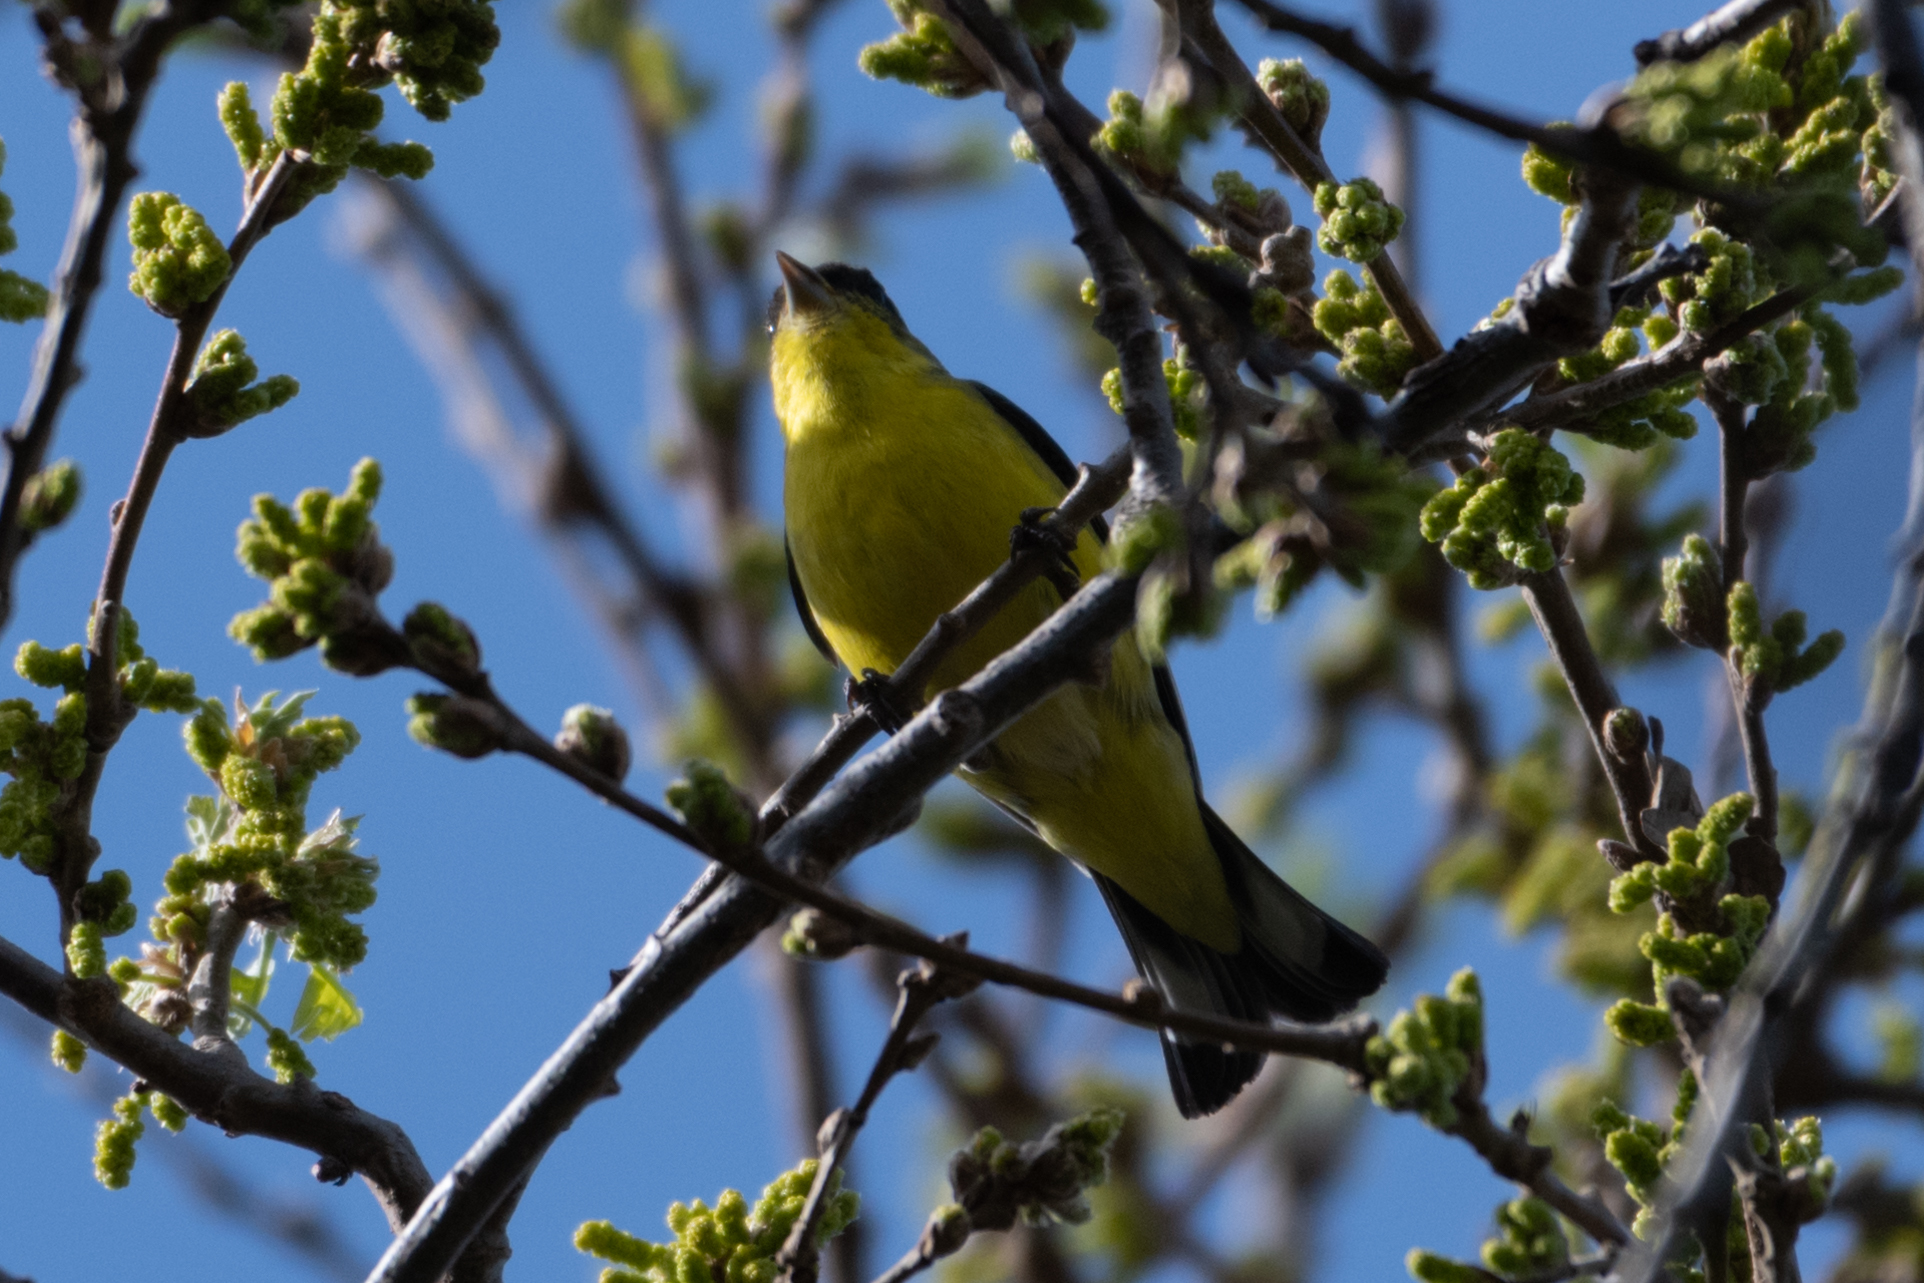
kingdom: Animalia
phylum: Chordata
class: Aves
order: Passeriformes
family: Fringillidae
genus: Spinus
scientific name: Spinus psaltria
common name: Lesser goldfinch
